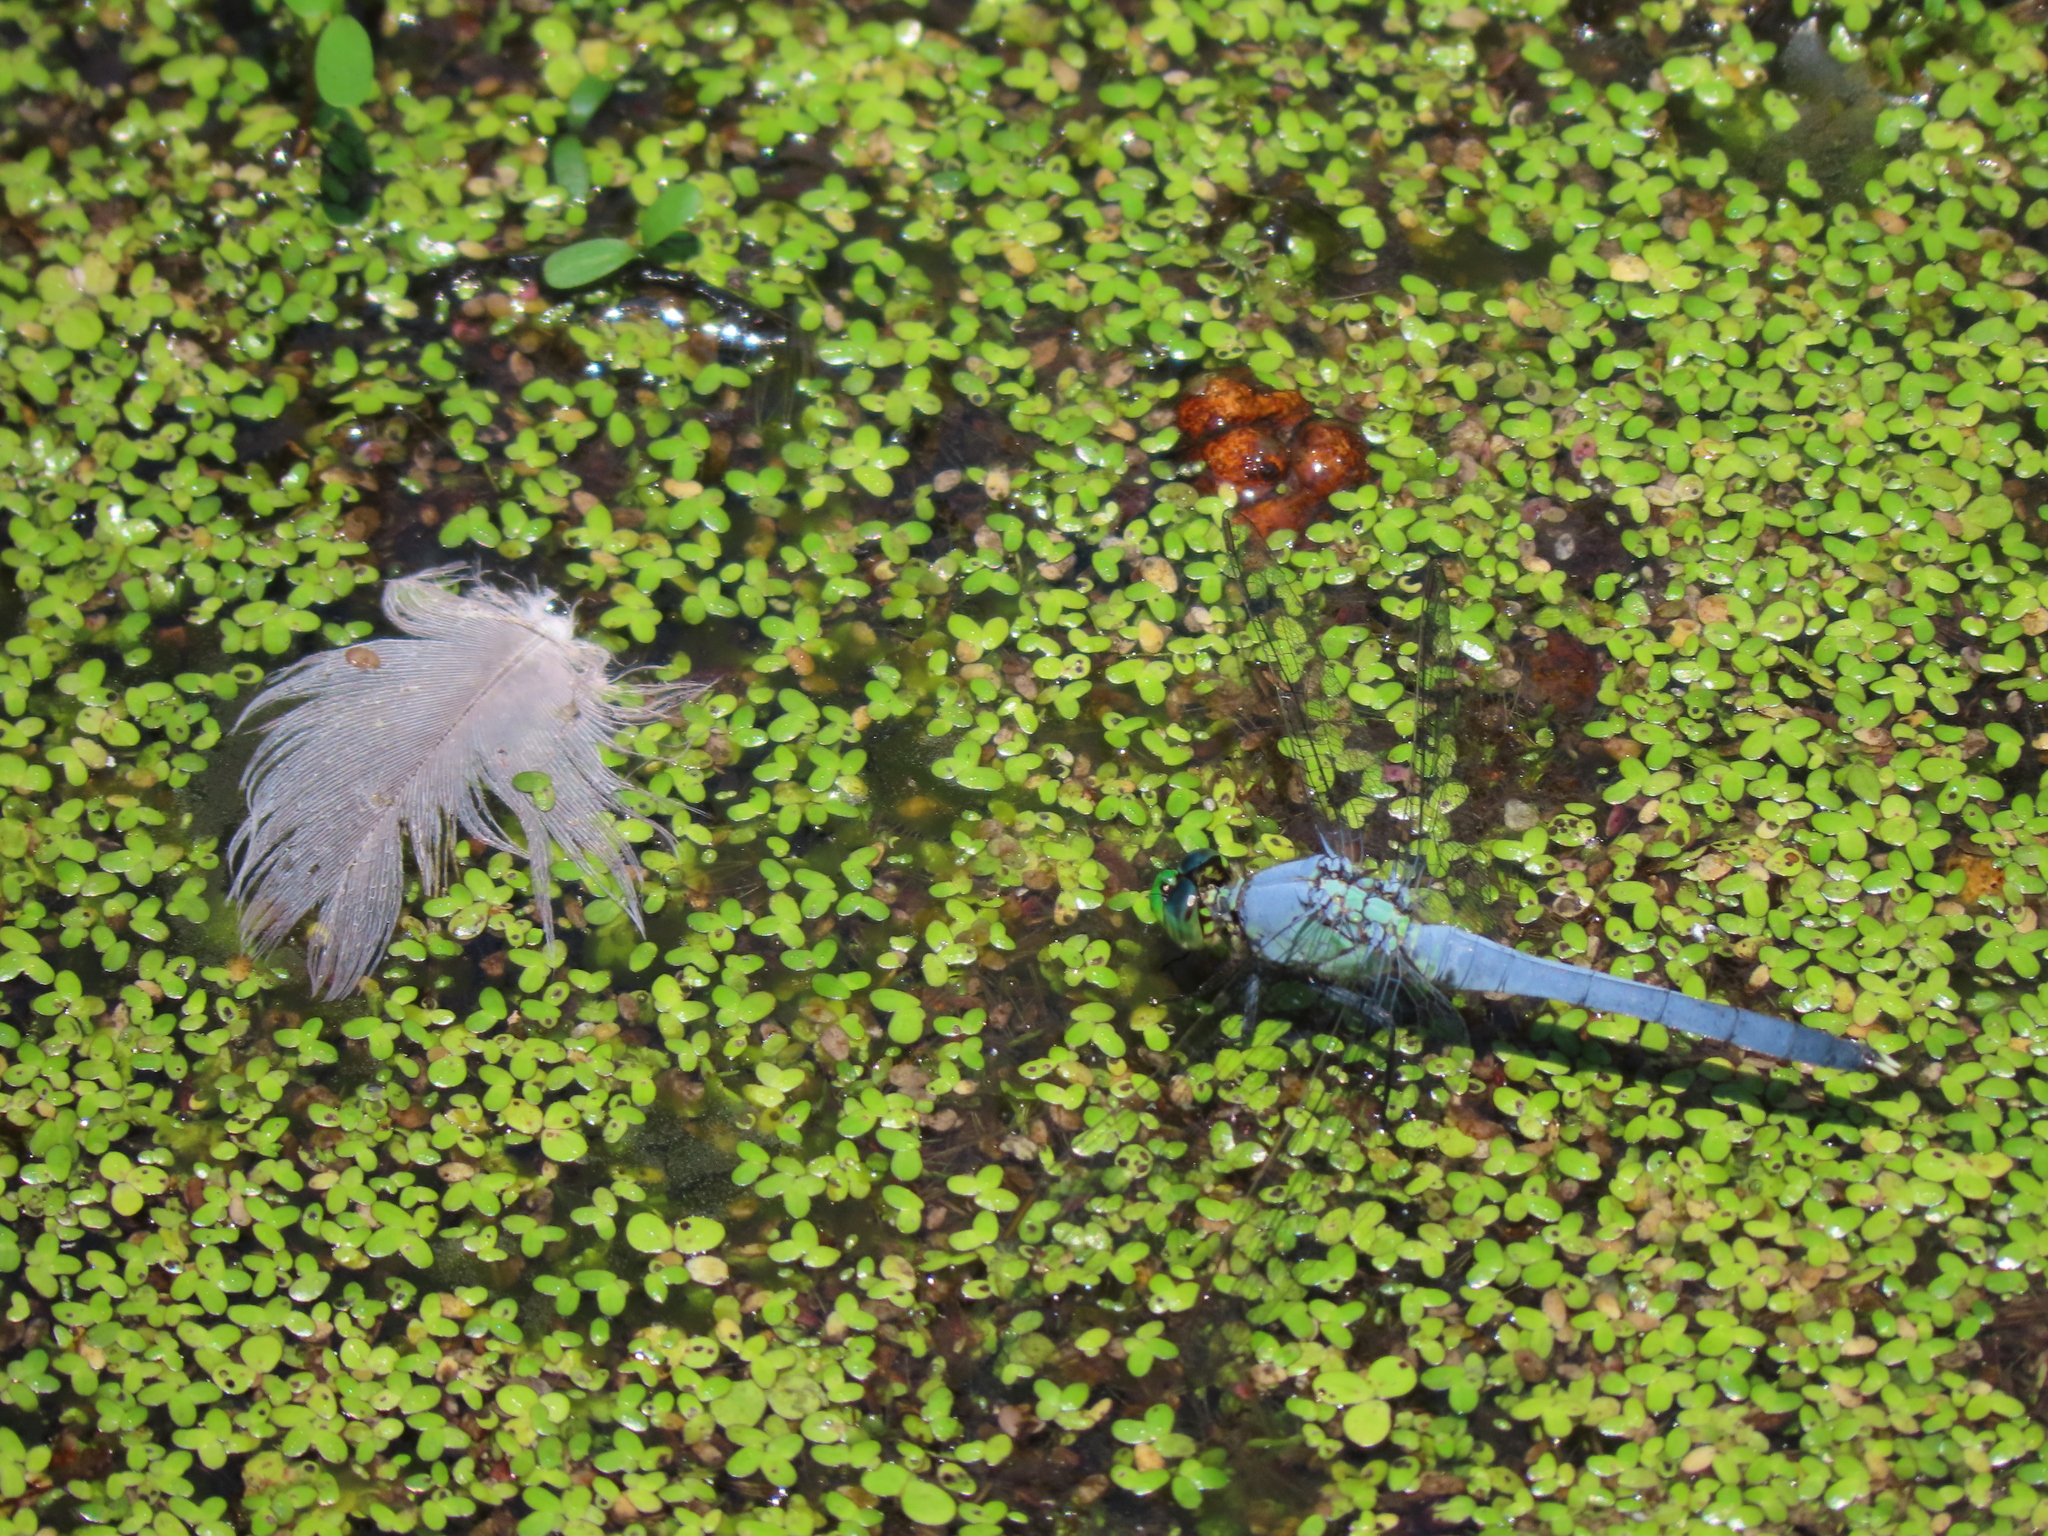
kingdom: Animalia
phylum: Arthropoda
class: Insecta
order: Odonata
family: Libellulidae
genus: Erythemis
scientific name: Erythemis simplicicollis
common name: Eastern pondhawk
